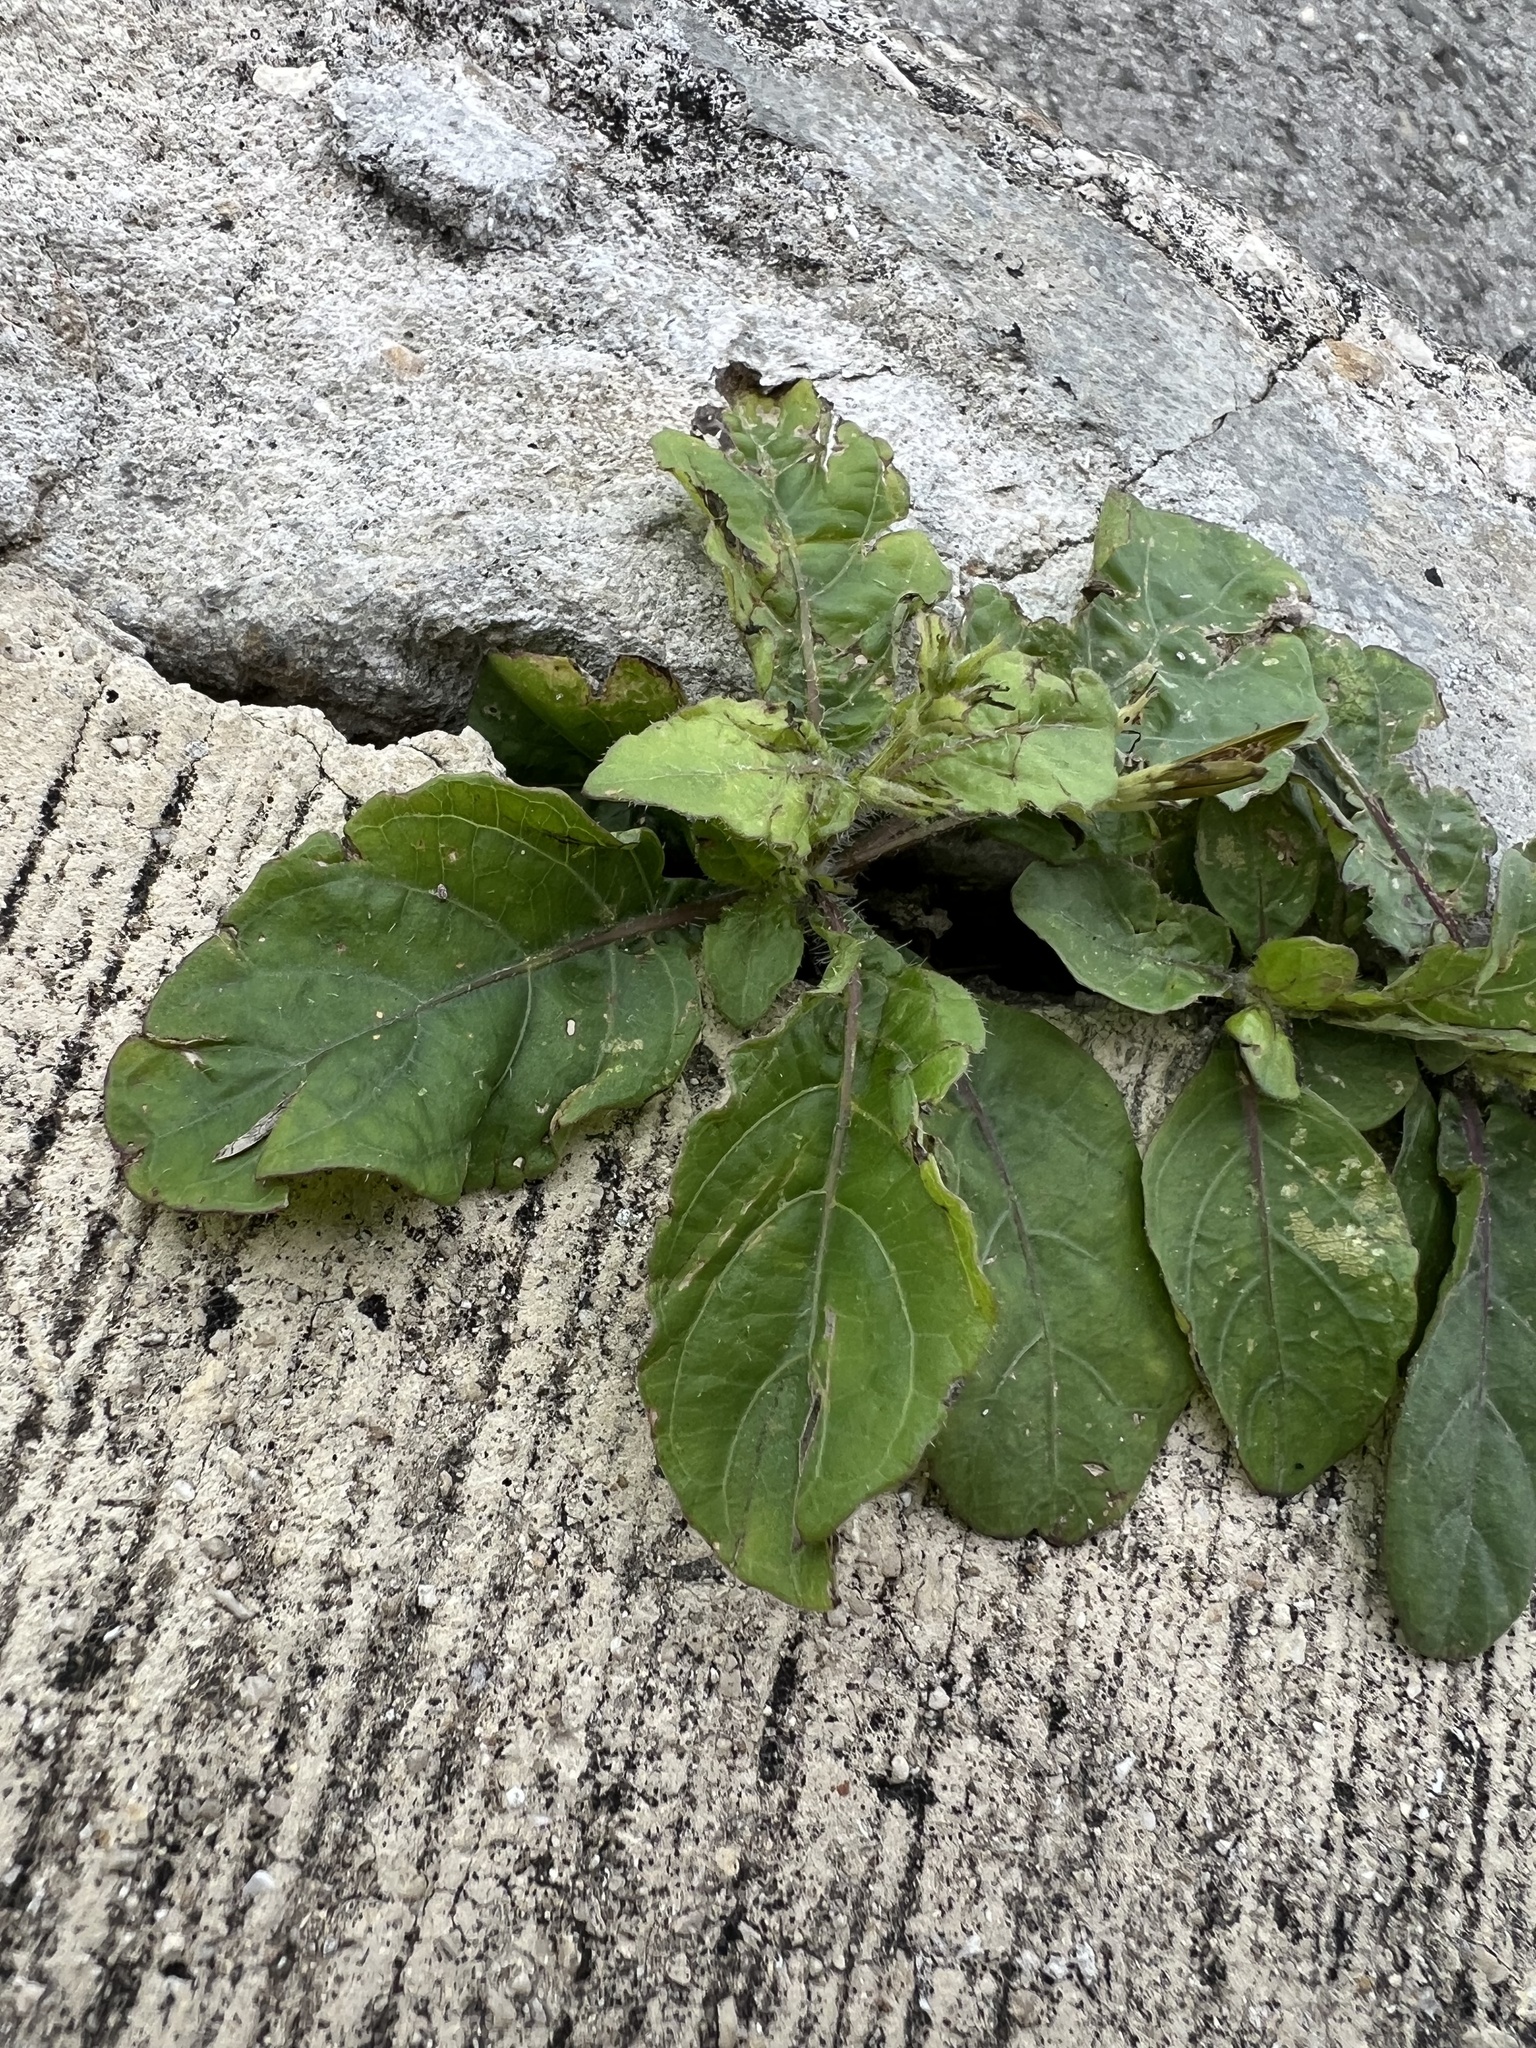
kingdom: Plantae
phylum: Tracheophyta
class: Magnoliopsida
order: Lamiales
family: Acanthaceae
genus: Ruellia
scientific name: Ruellia tuberosa
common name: Devil's bit
